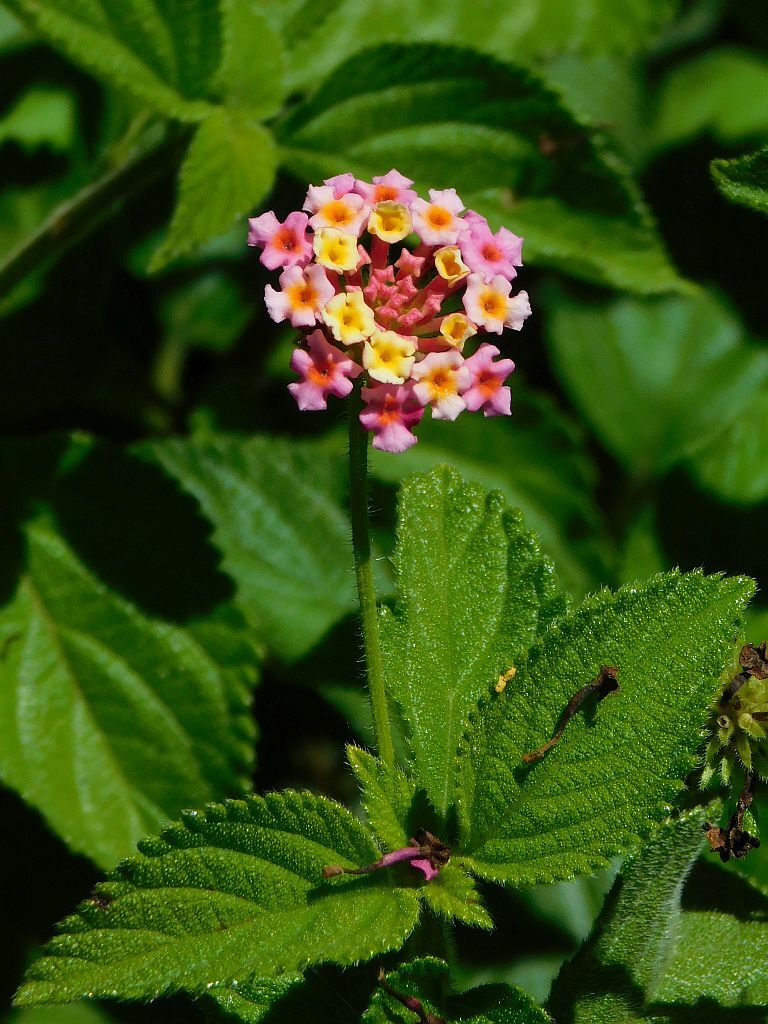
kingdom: Plantae
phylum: Tracheophyta
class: Magnoliopsida
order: Lamiales
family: Verbenaceae
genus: Lantana
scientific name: Lantana camara
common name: Lantana
